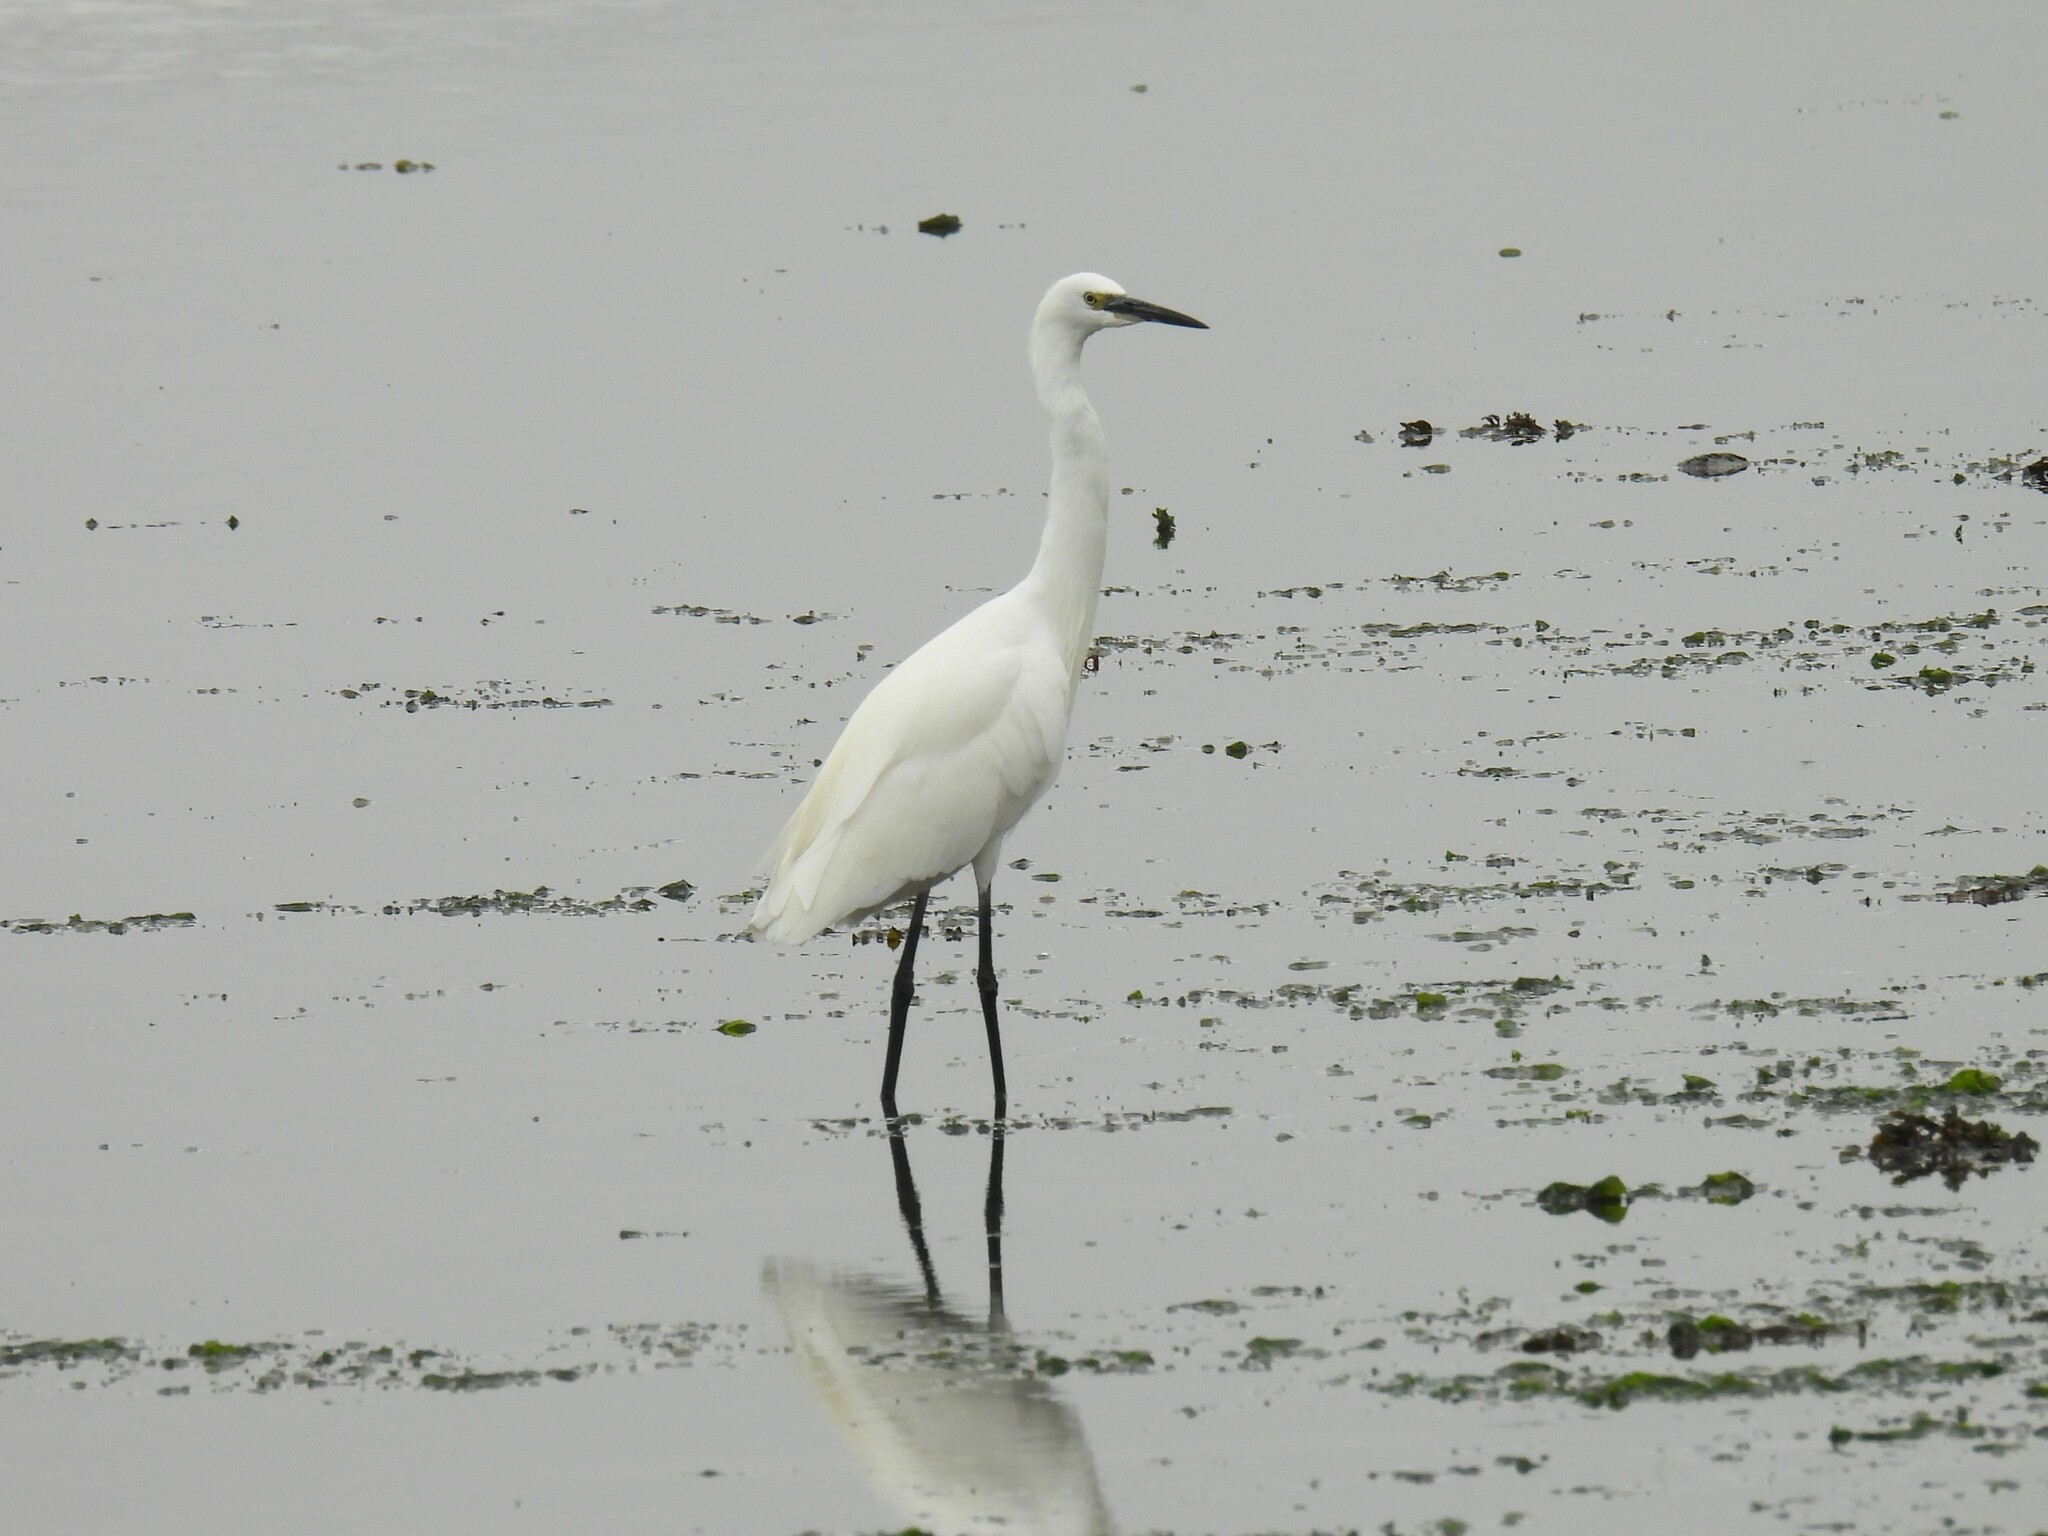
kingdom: Animalia
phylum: Chordata
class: Aves
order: Pelecaniformes
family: Ardeidae
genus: Egretta
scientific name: Egretta garzetta
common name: Little egret
